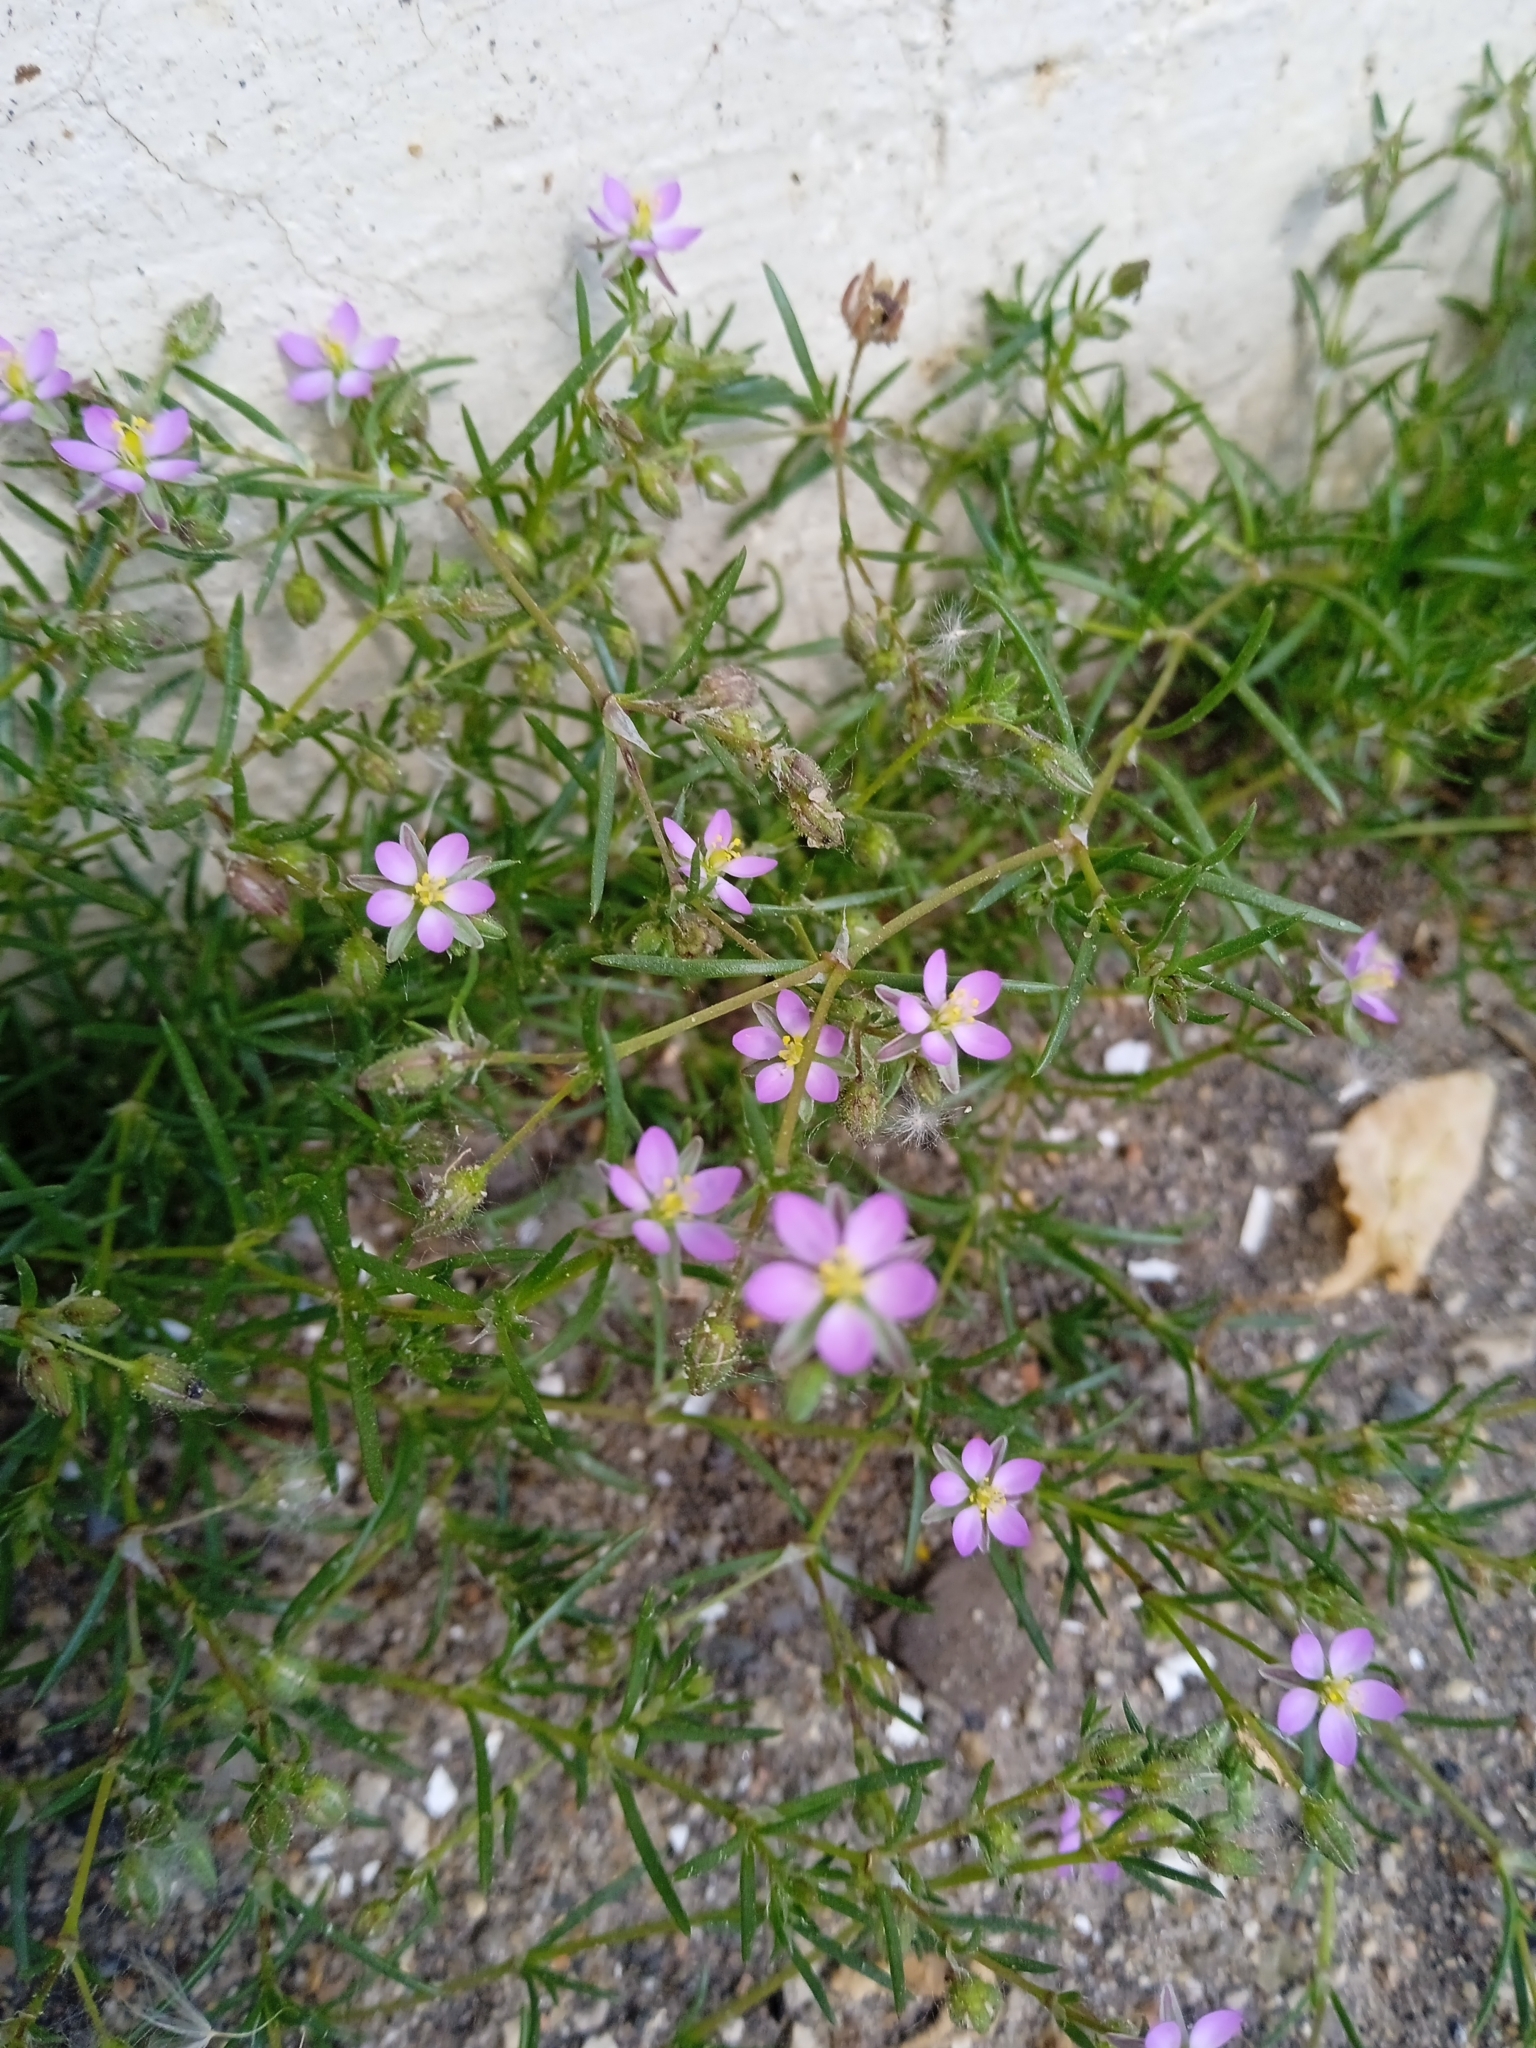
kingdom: Plantae
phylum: Tracheophyta
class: Magnoliopsida
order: Caryophyllales
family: Caryophyllaceae
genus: Spergularia
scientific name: Spergularia rubra
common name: Red sand-spurrey
